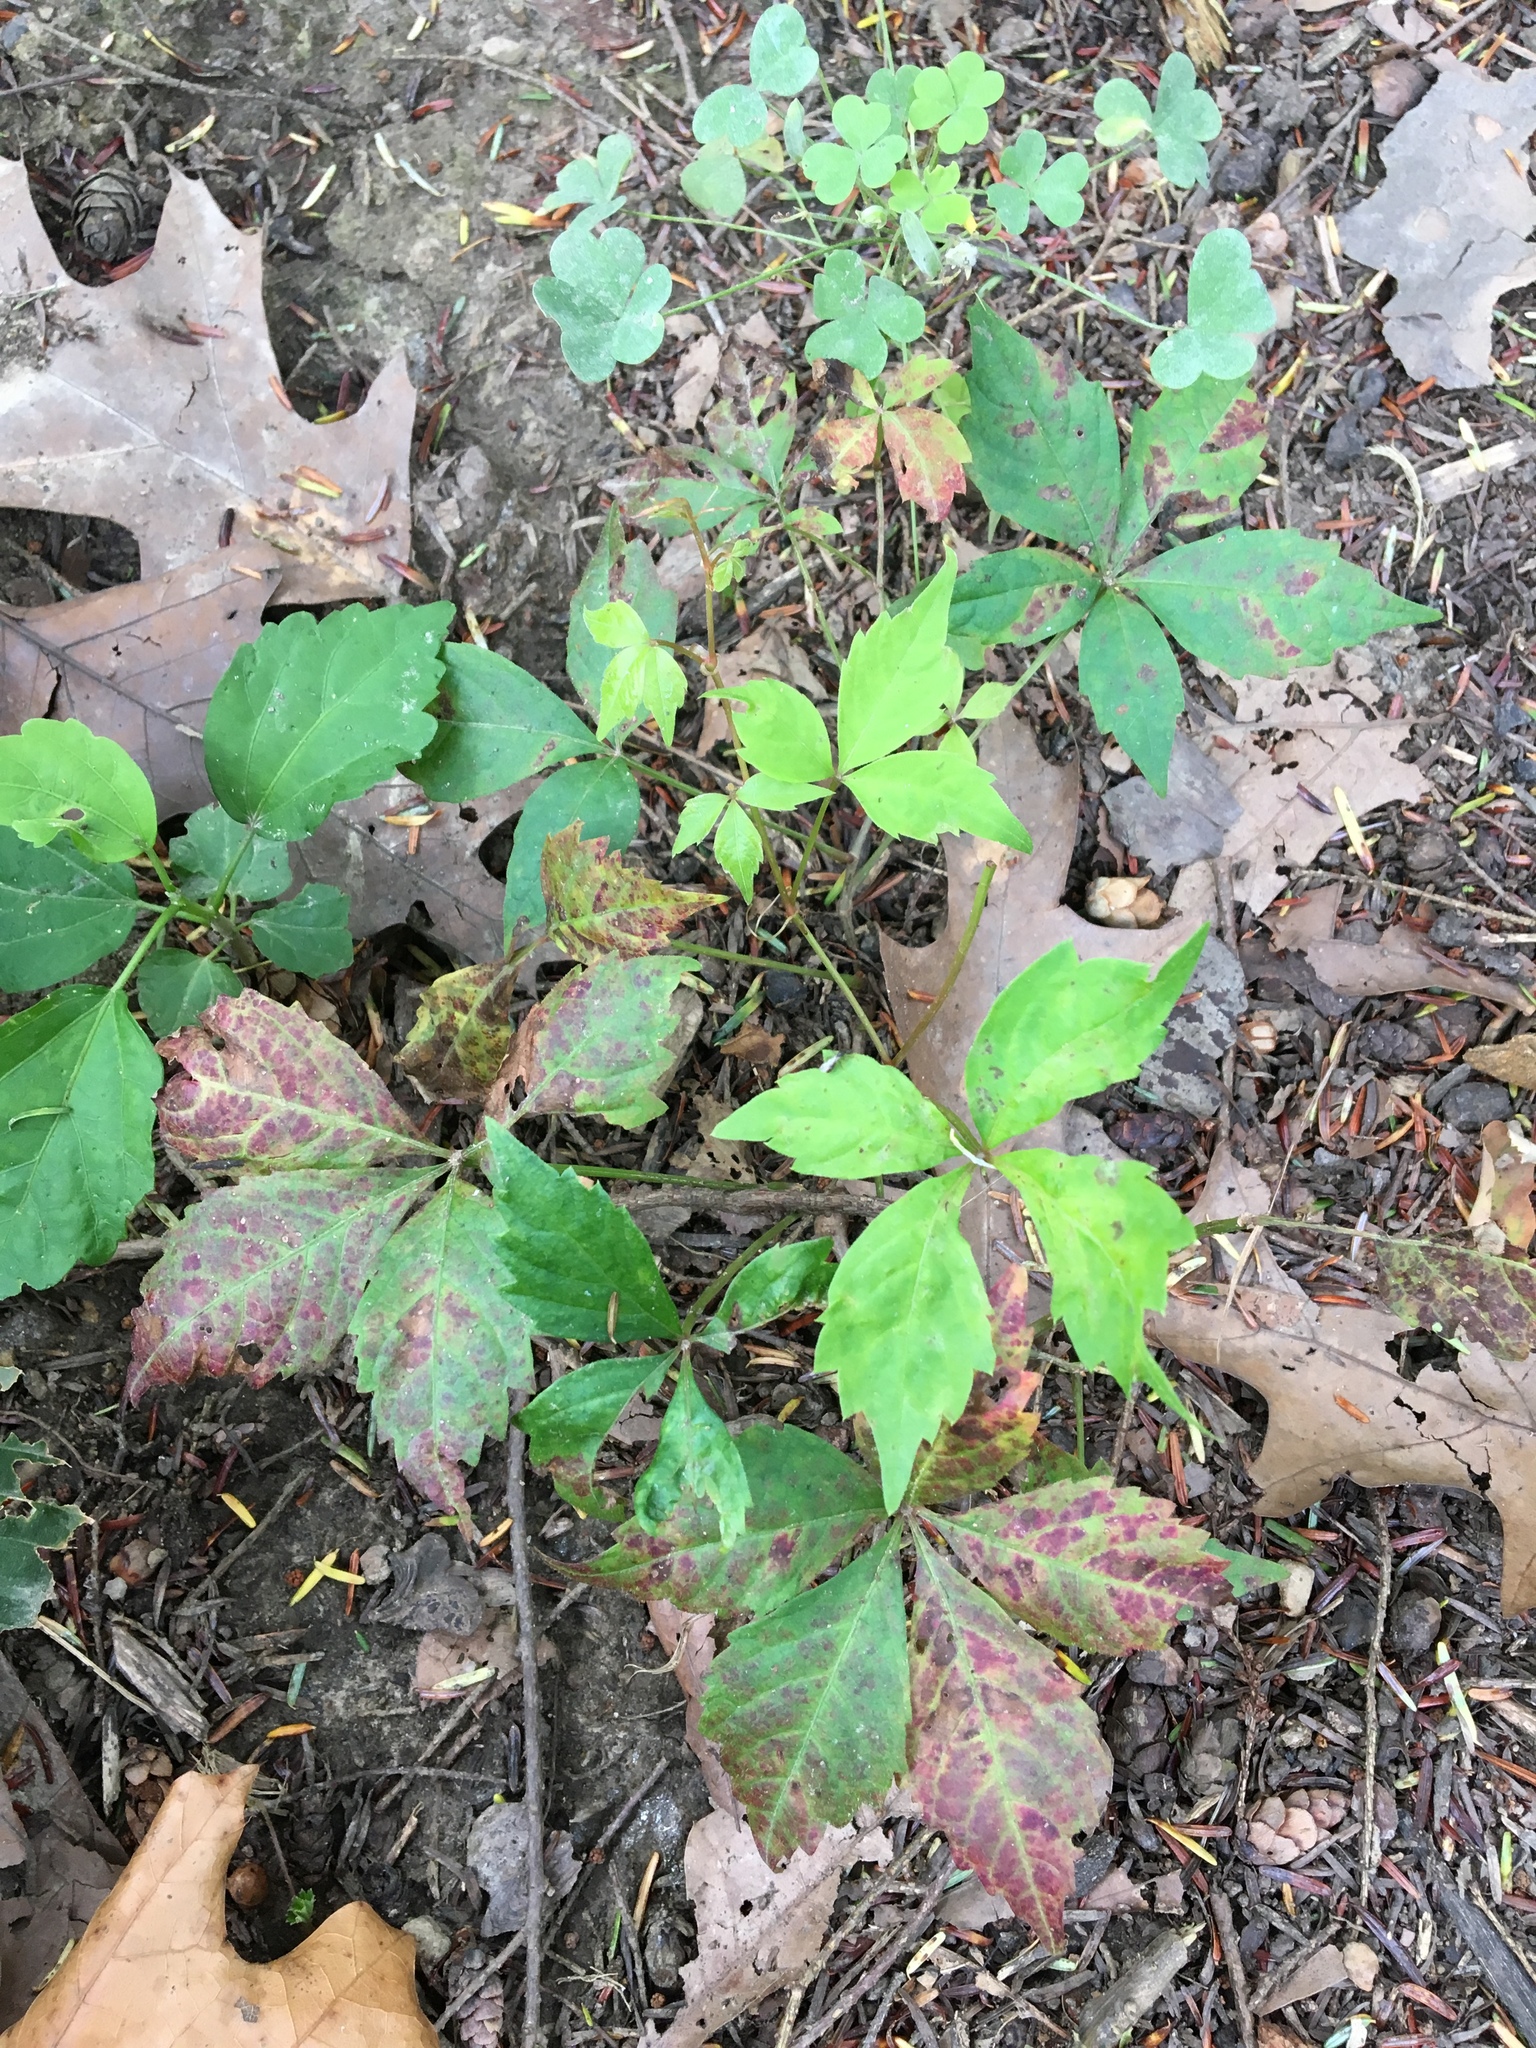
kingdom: Plantae
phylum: Tracheophyta
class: Magnoliopsida
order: Vitales
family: Vitaceae
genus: Parthenocissus
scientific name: Parthenocissus quinquefolia
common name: Virginia-creeper
